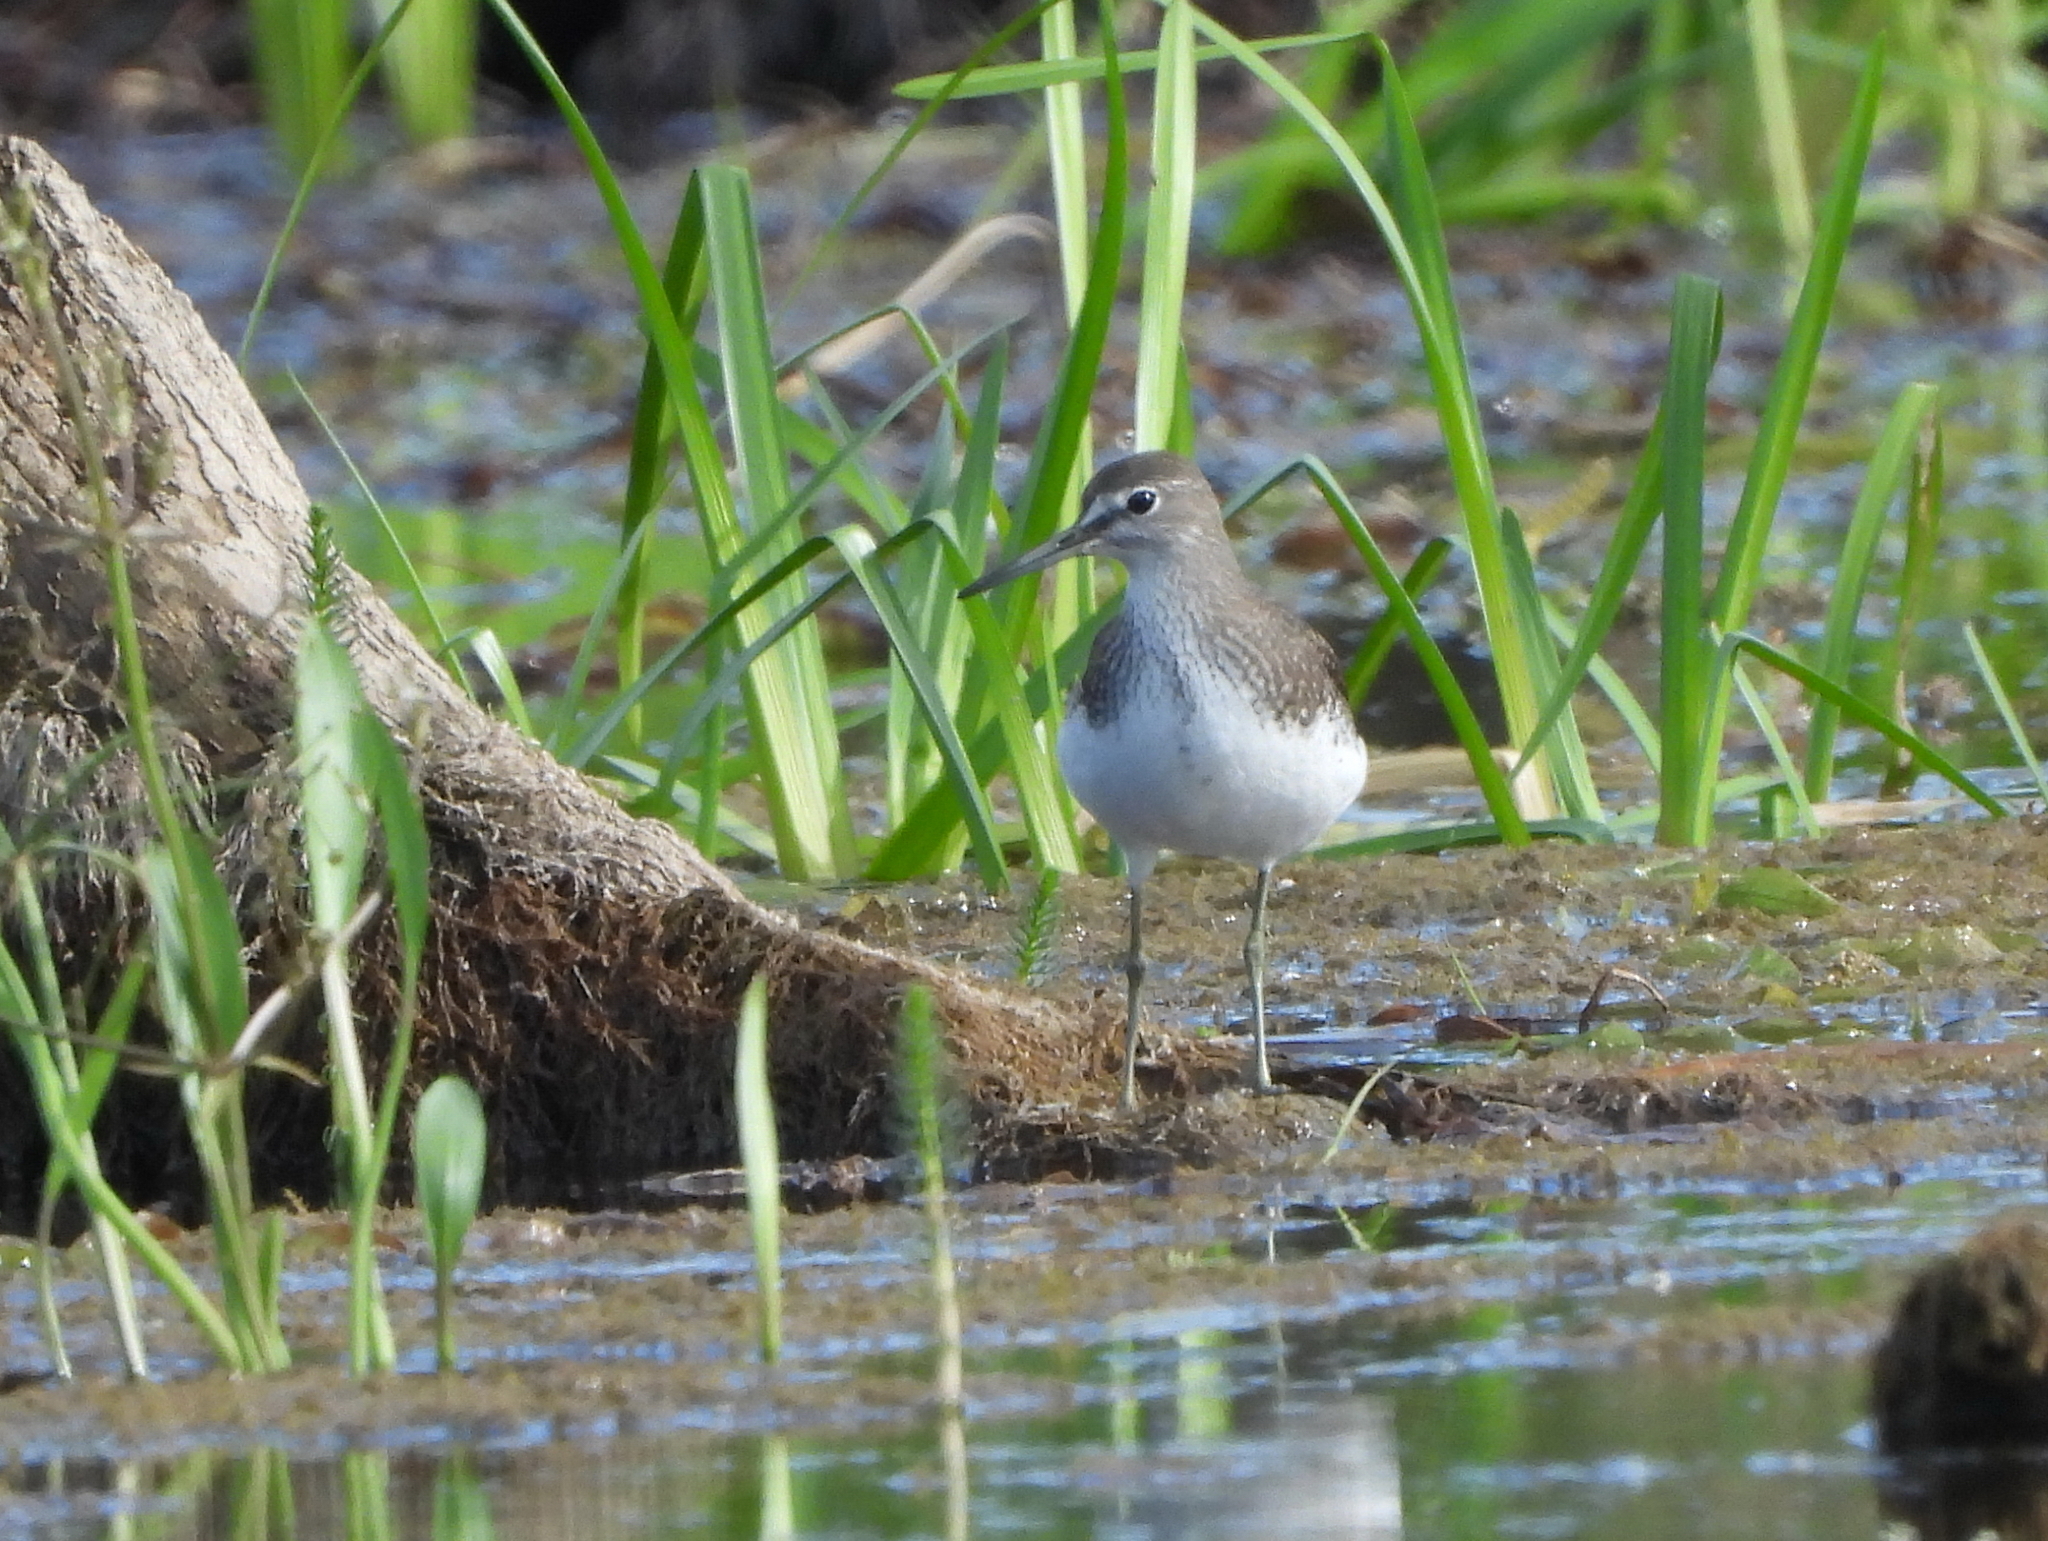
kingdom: Animalia
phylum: Chordata
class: Aves
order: Charadriiformes
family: Scolopacidae
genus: Tringa
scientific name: Tringa ochropus
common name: Green sandpiper
